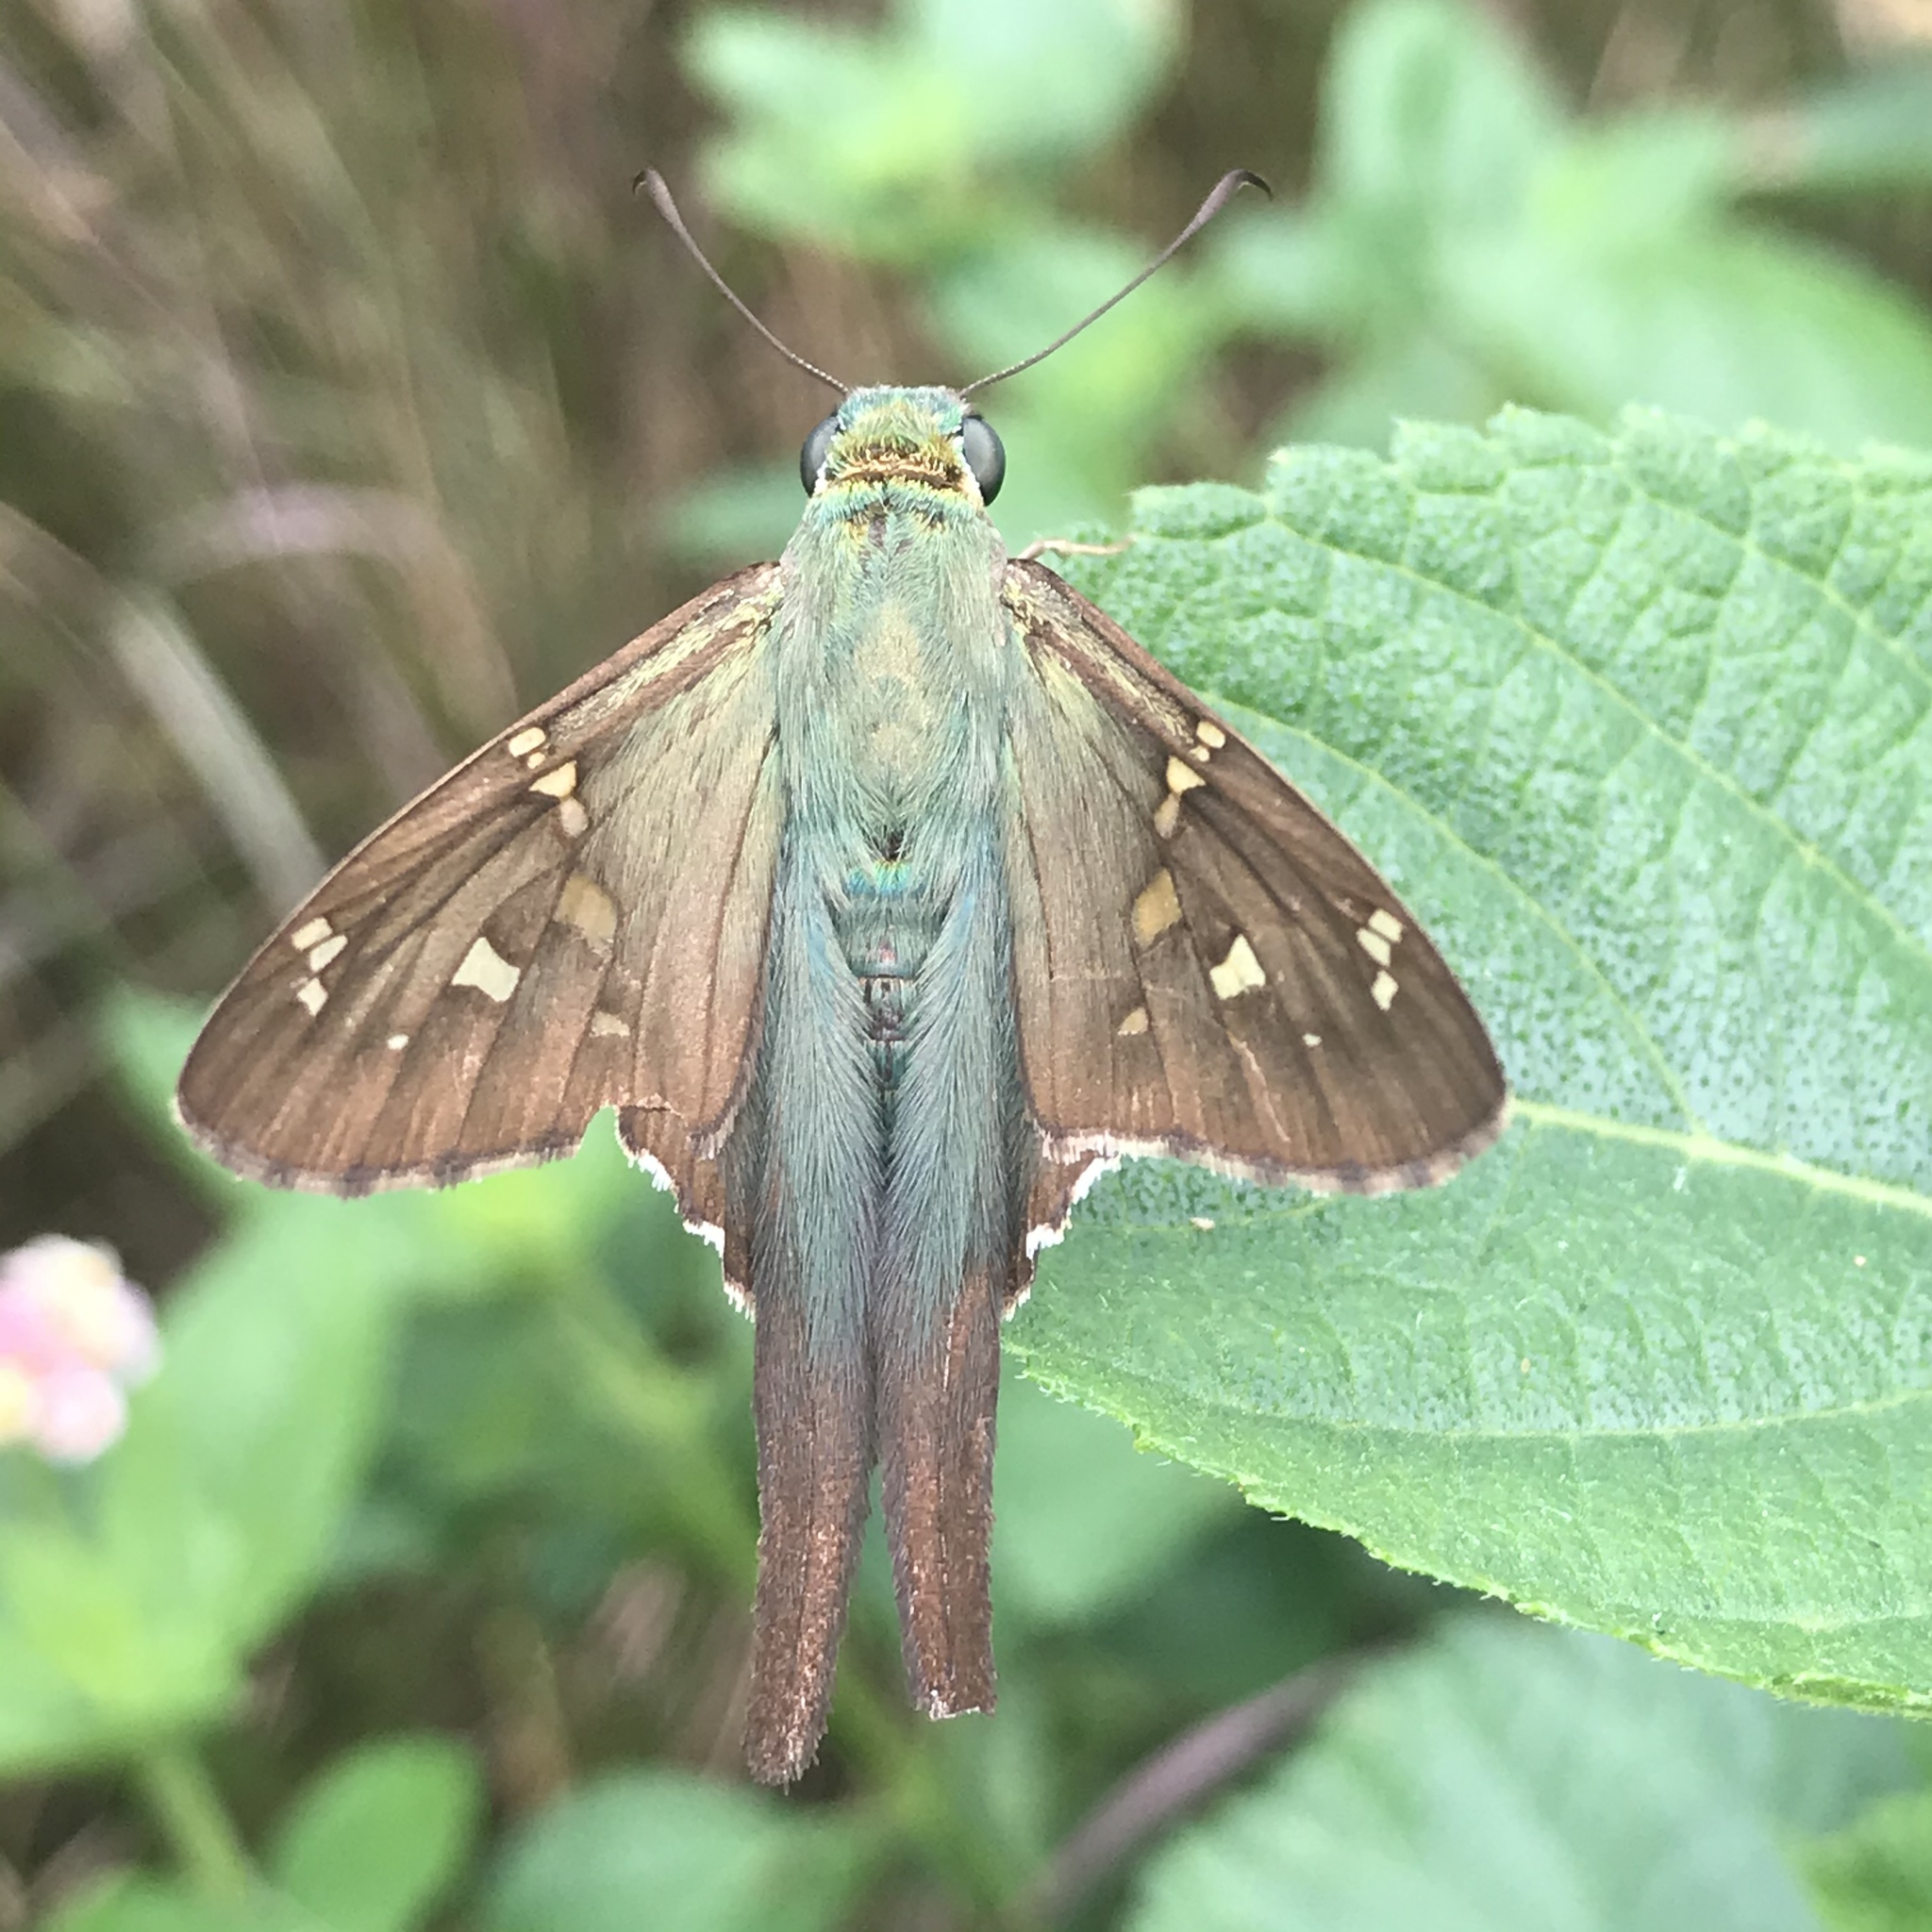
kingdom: Animalia
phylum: Arthropoda
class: Insecta
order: Lepidoptera
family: Hesperiidae
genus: Urbanus
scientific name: Urbanus proteus
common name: Long-tailed skipper
